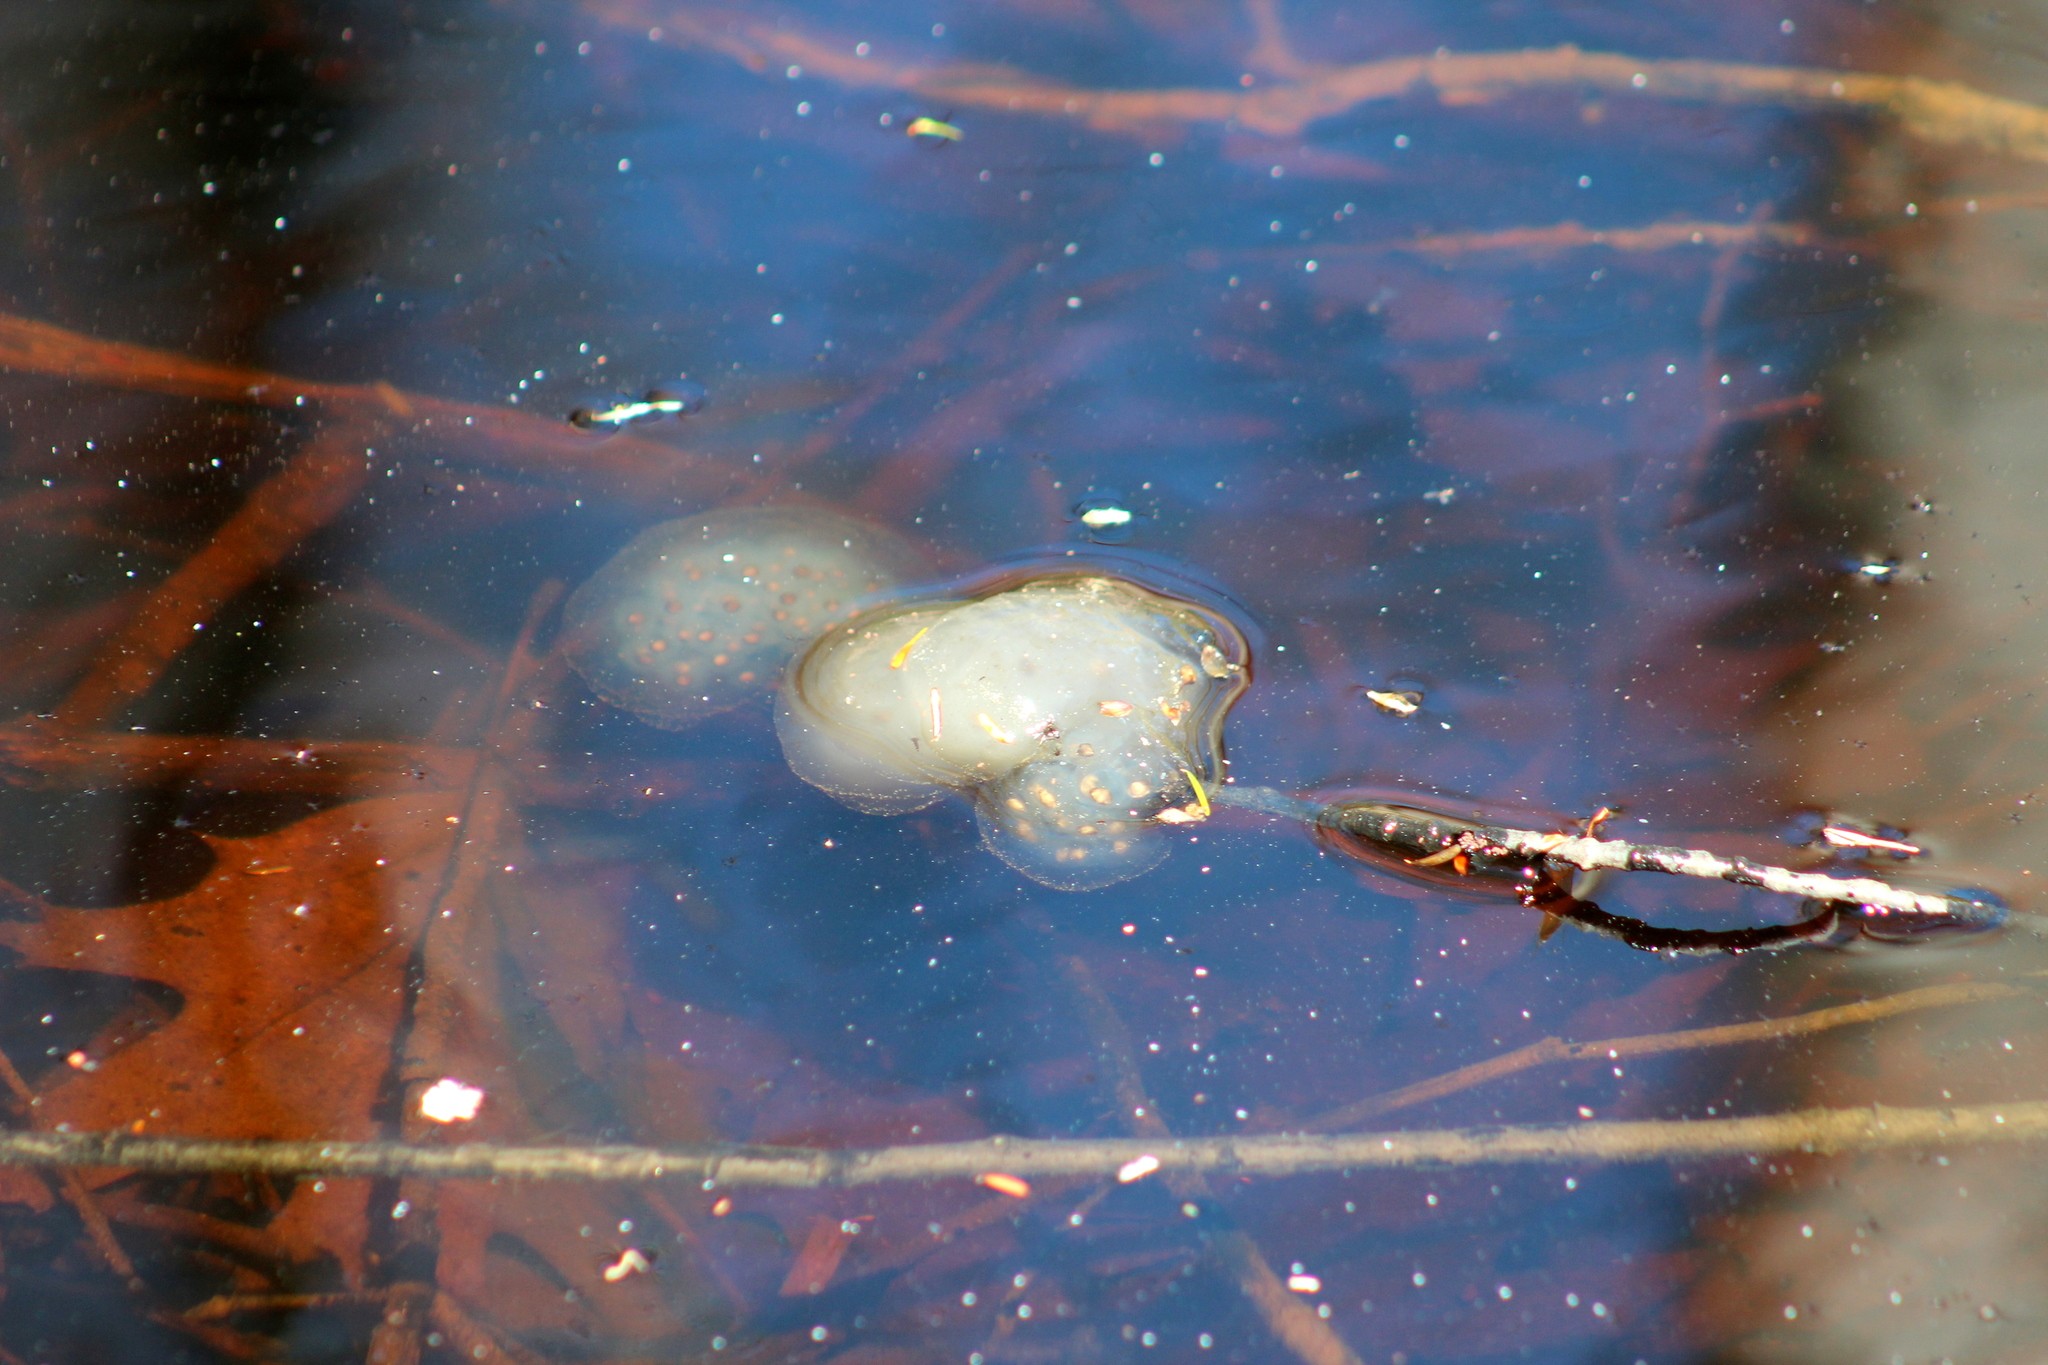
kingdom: Animalia
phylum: Chordata
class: Amphibia
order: Caudata
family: Ambystomatidae
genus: Ambystoma
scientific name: Ambystoma maculatum
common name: Spotted salamander
